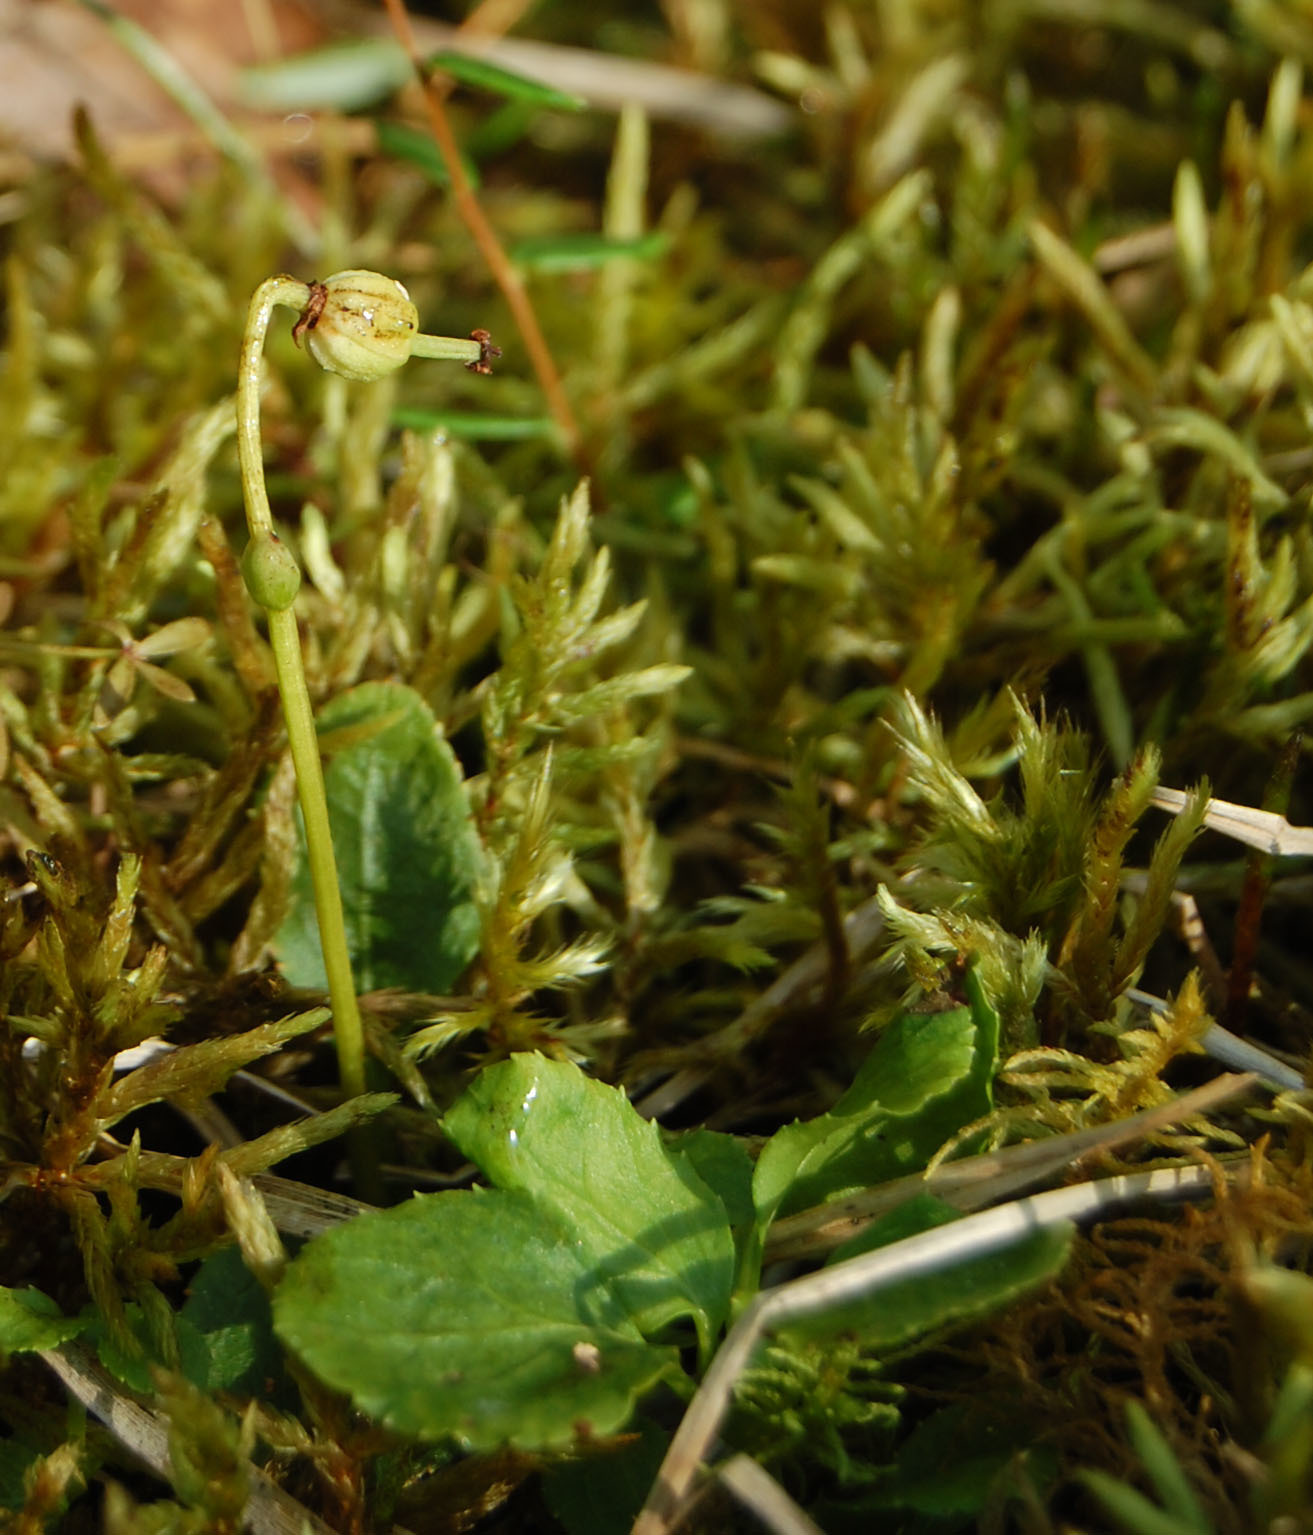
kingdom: Plantae
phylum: Tracheophyta
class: Magnoliopsida
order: Ericales
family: Ericaceae
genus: Moneses
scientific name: Moneses uniflora
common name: One-flowered wintergreen
